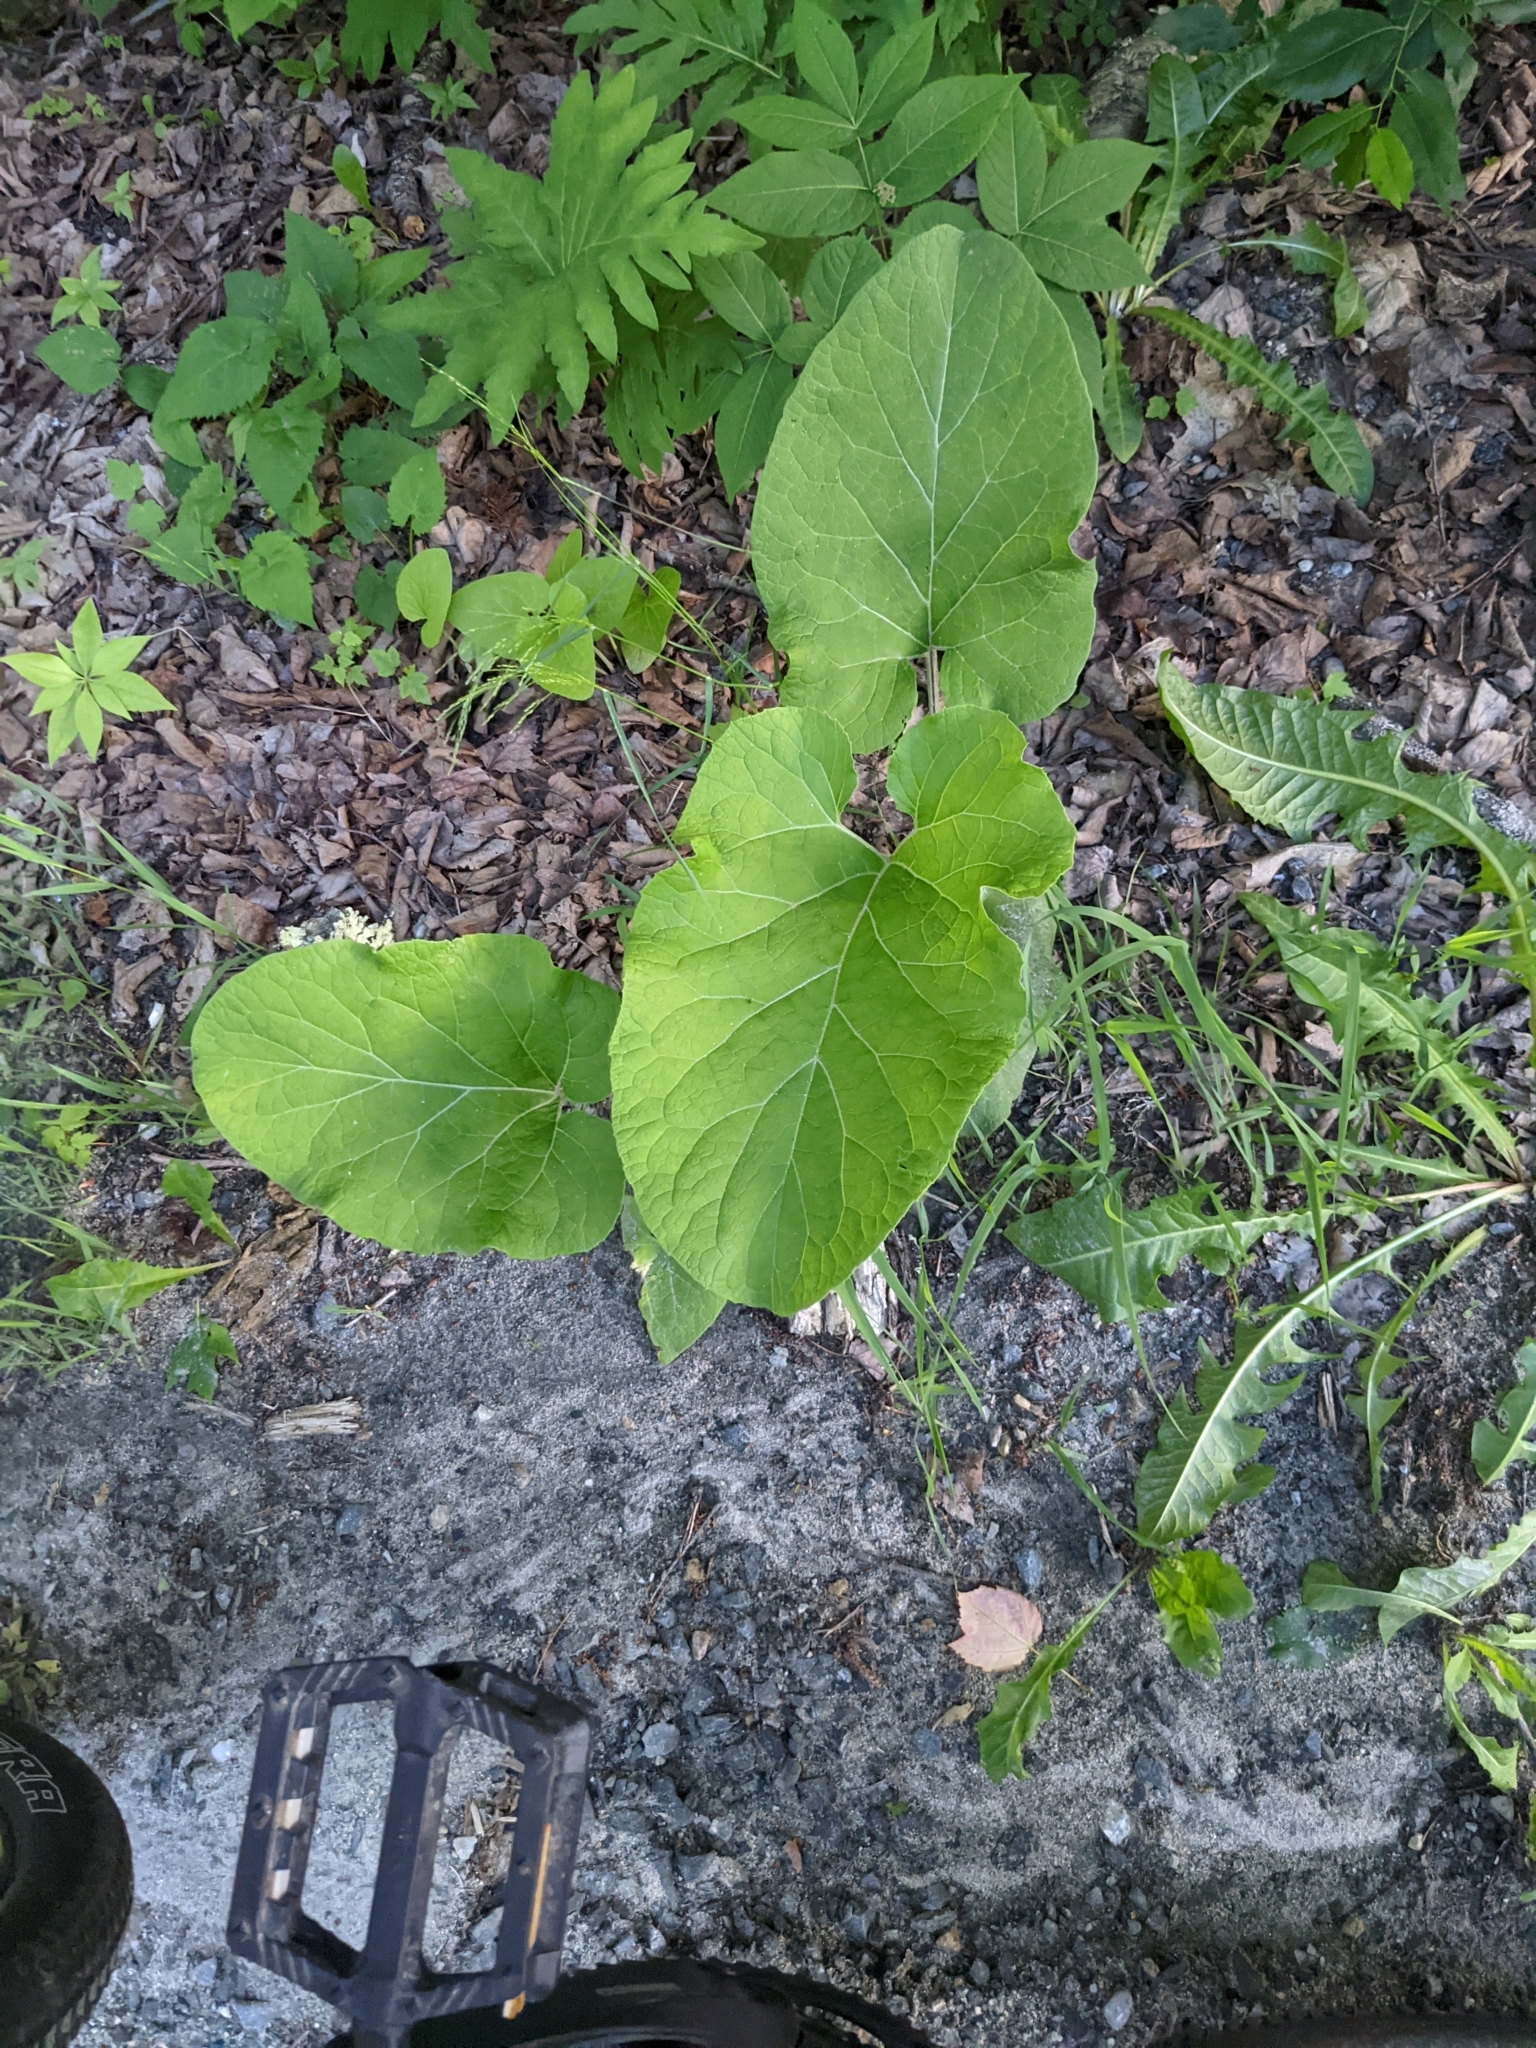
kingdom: Plantae
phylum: Tracheophyta
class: Magnoliopsida
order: Asterales
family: Asteraceae
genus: Arctium
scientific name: Arctium
